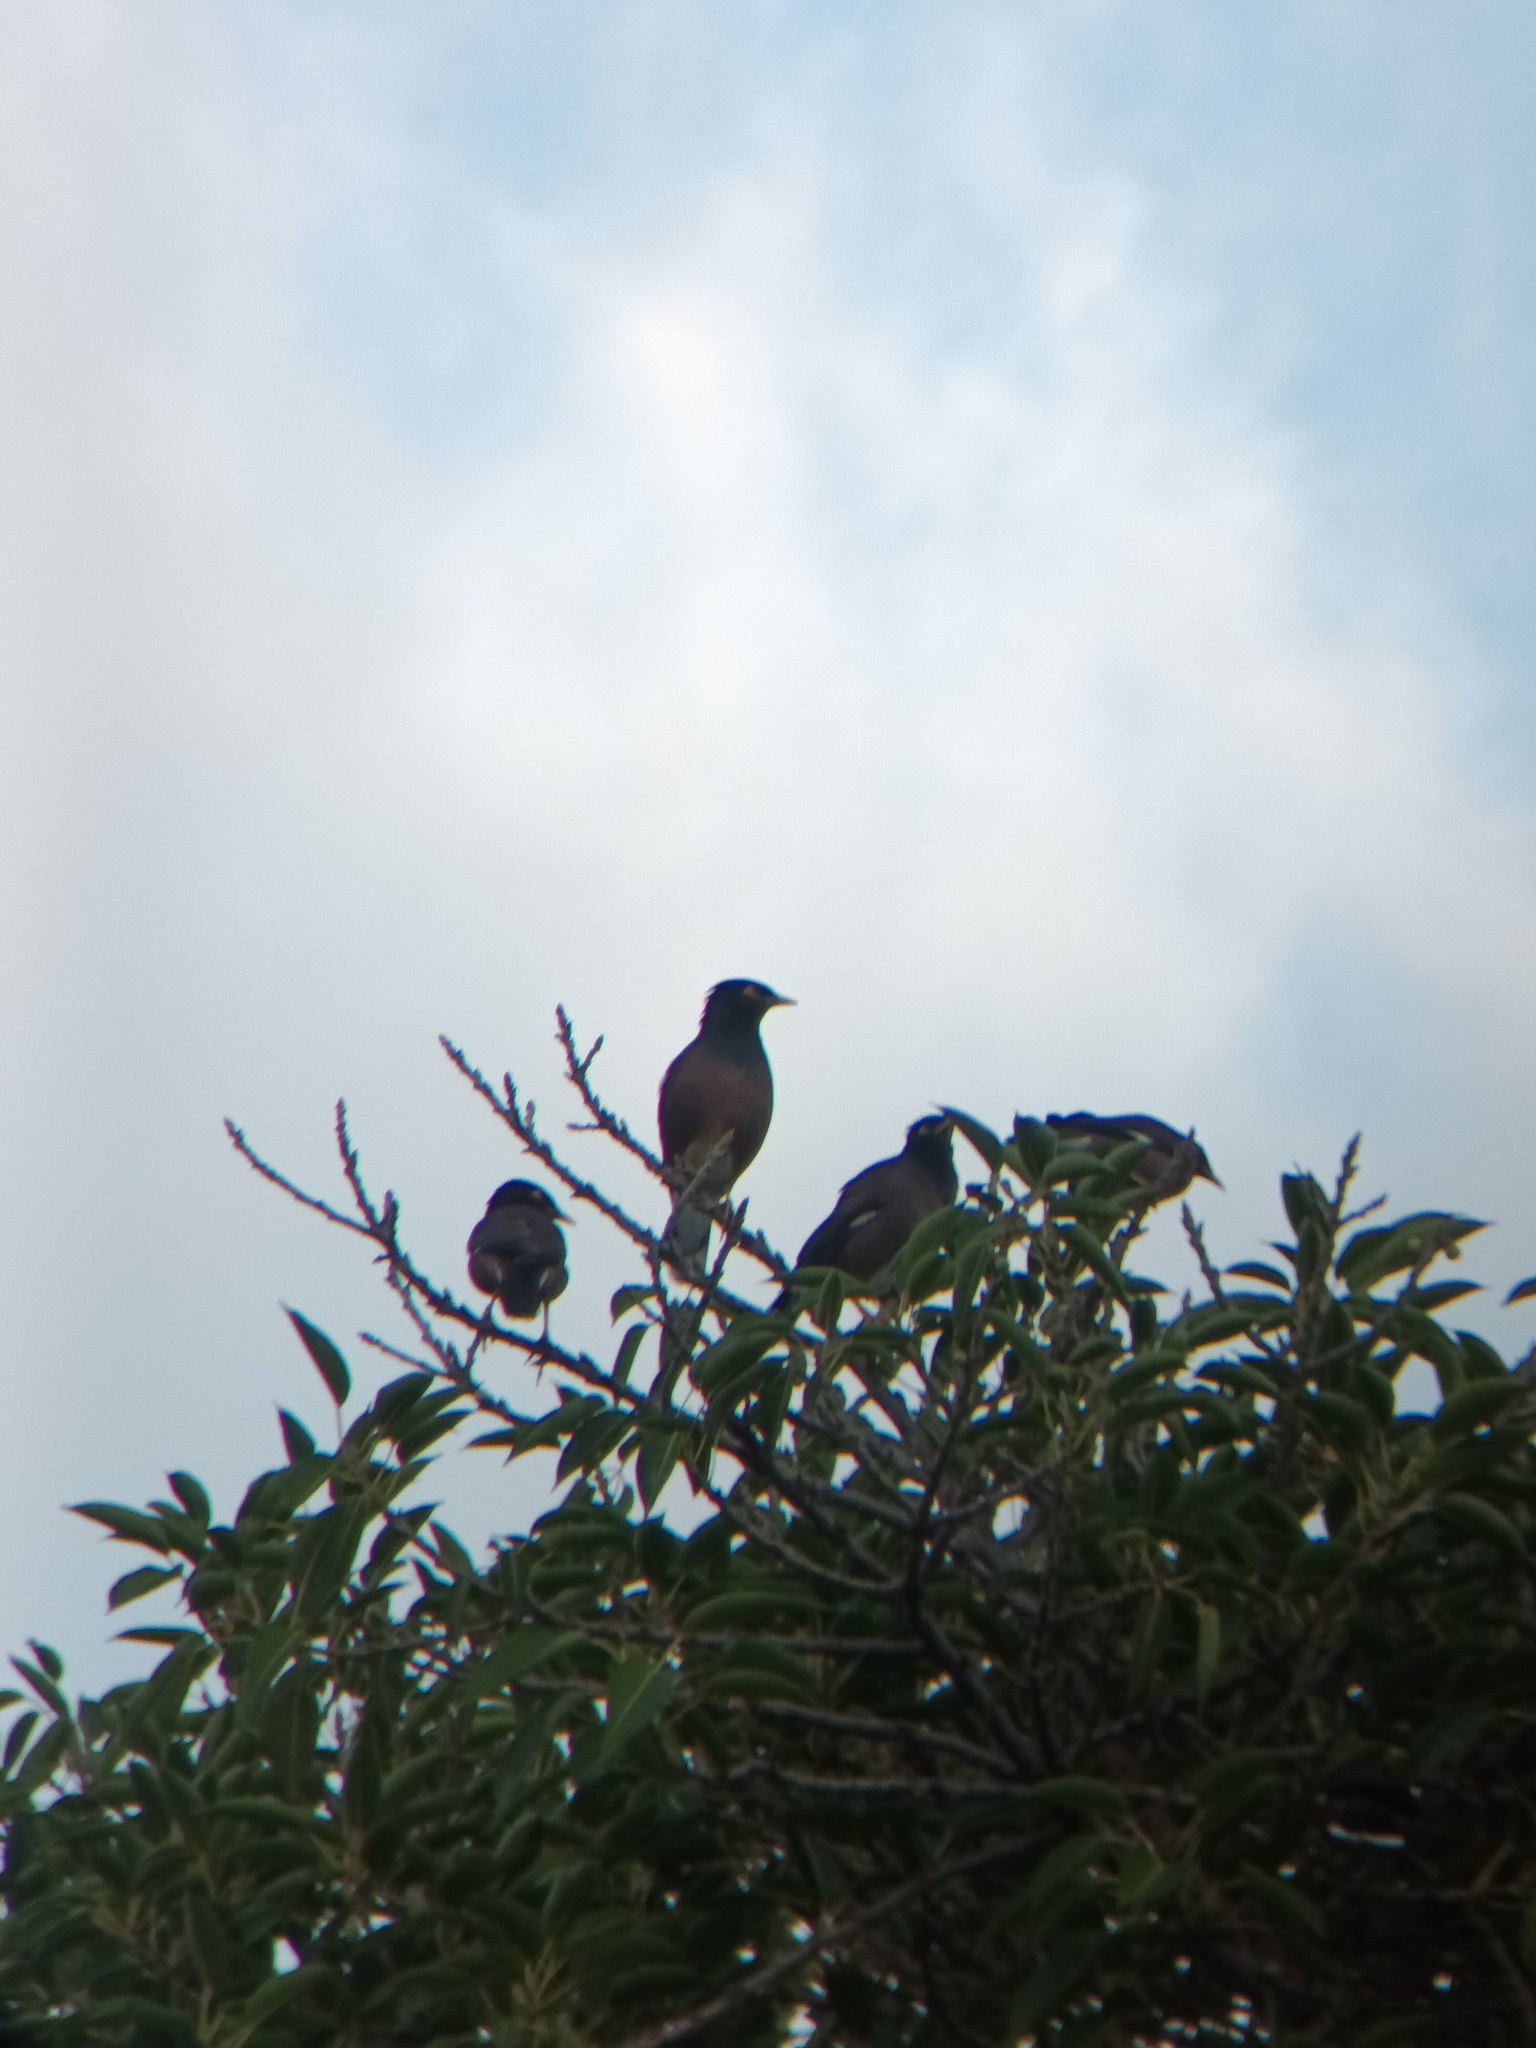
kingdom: Animalia
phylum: Chordata
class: Aves
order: Passeriformes
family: Sturnidae
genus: Acridotheres
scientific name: Acridotheres tristis
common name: Common myna
